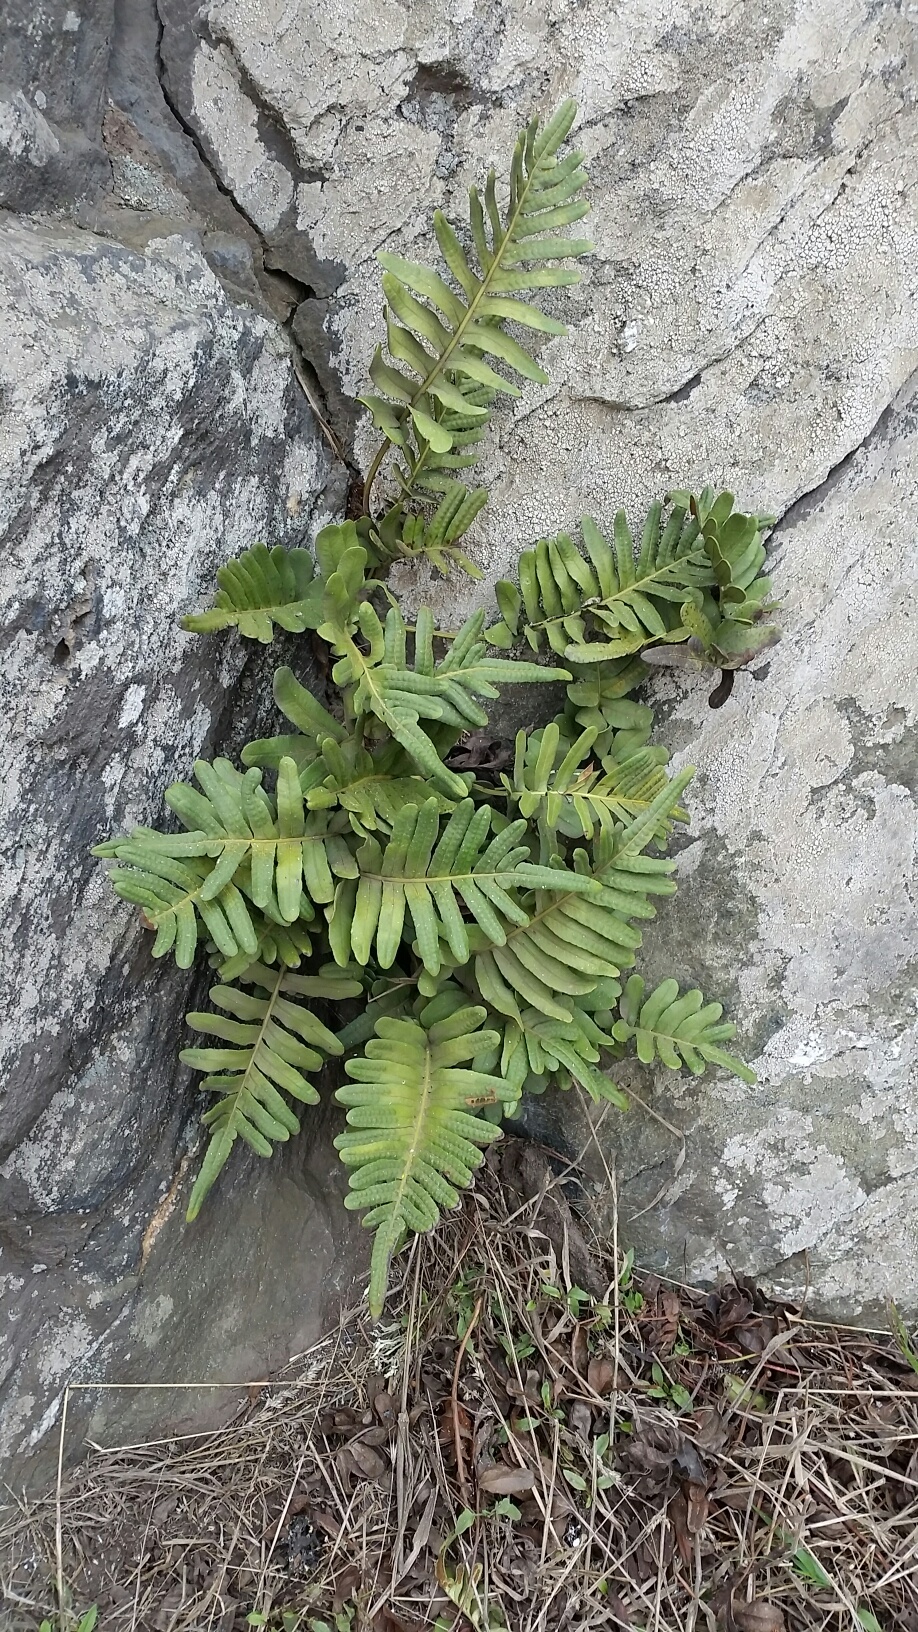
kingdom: Plantae
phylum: Tracheophyta
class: Polypodiopsida
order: Polypodiales
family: Polypodiaceae
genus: Polypodium
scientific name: Polypodium scouleri
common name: Scouler's polypody
